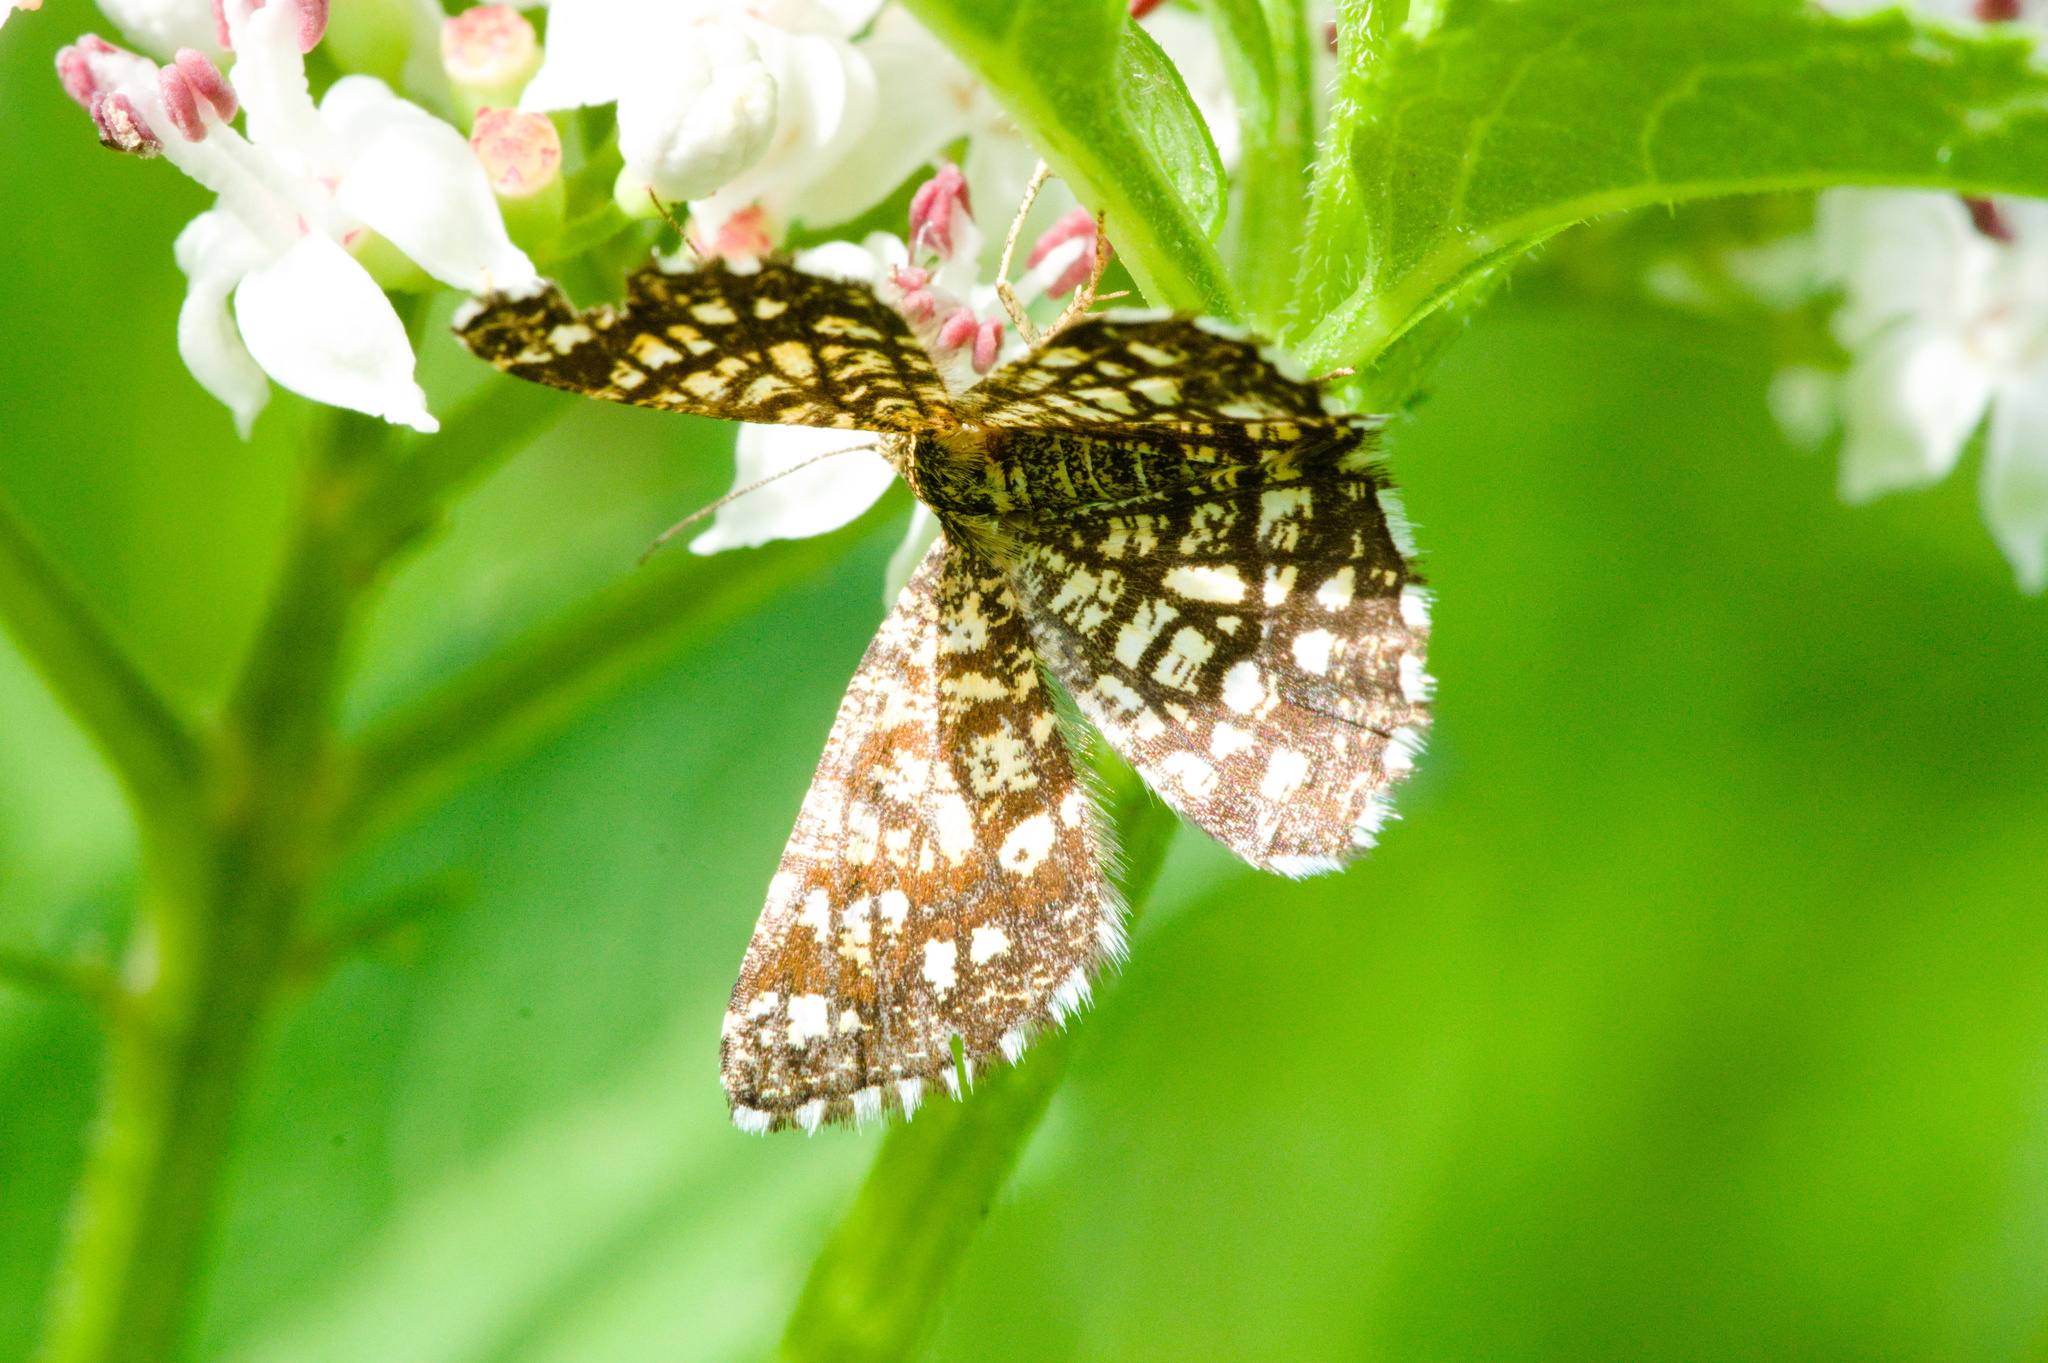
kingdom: Animalia
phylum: Arthropoda
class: Insecta
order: Lepidoptera
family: Geometridae
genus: Chiasmia
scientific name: Chiasmia clathrata
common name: Latticed heath
